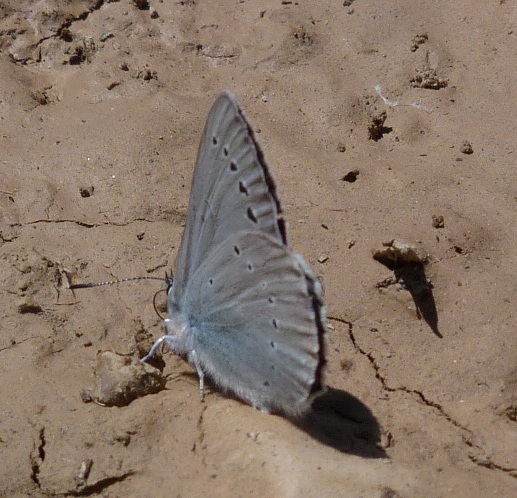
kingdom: Animalia
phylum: Arthropoda
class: Insecta
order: Lepidoptera
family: Lycaenidae
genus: Iolana
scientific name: Iolana debilitata
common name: Iolas blue
